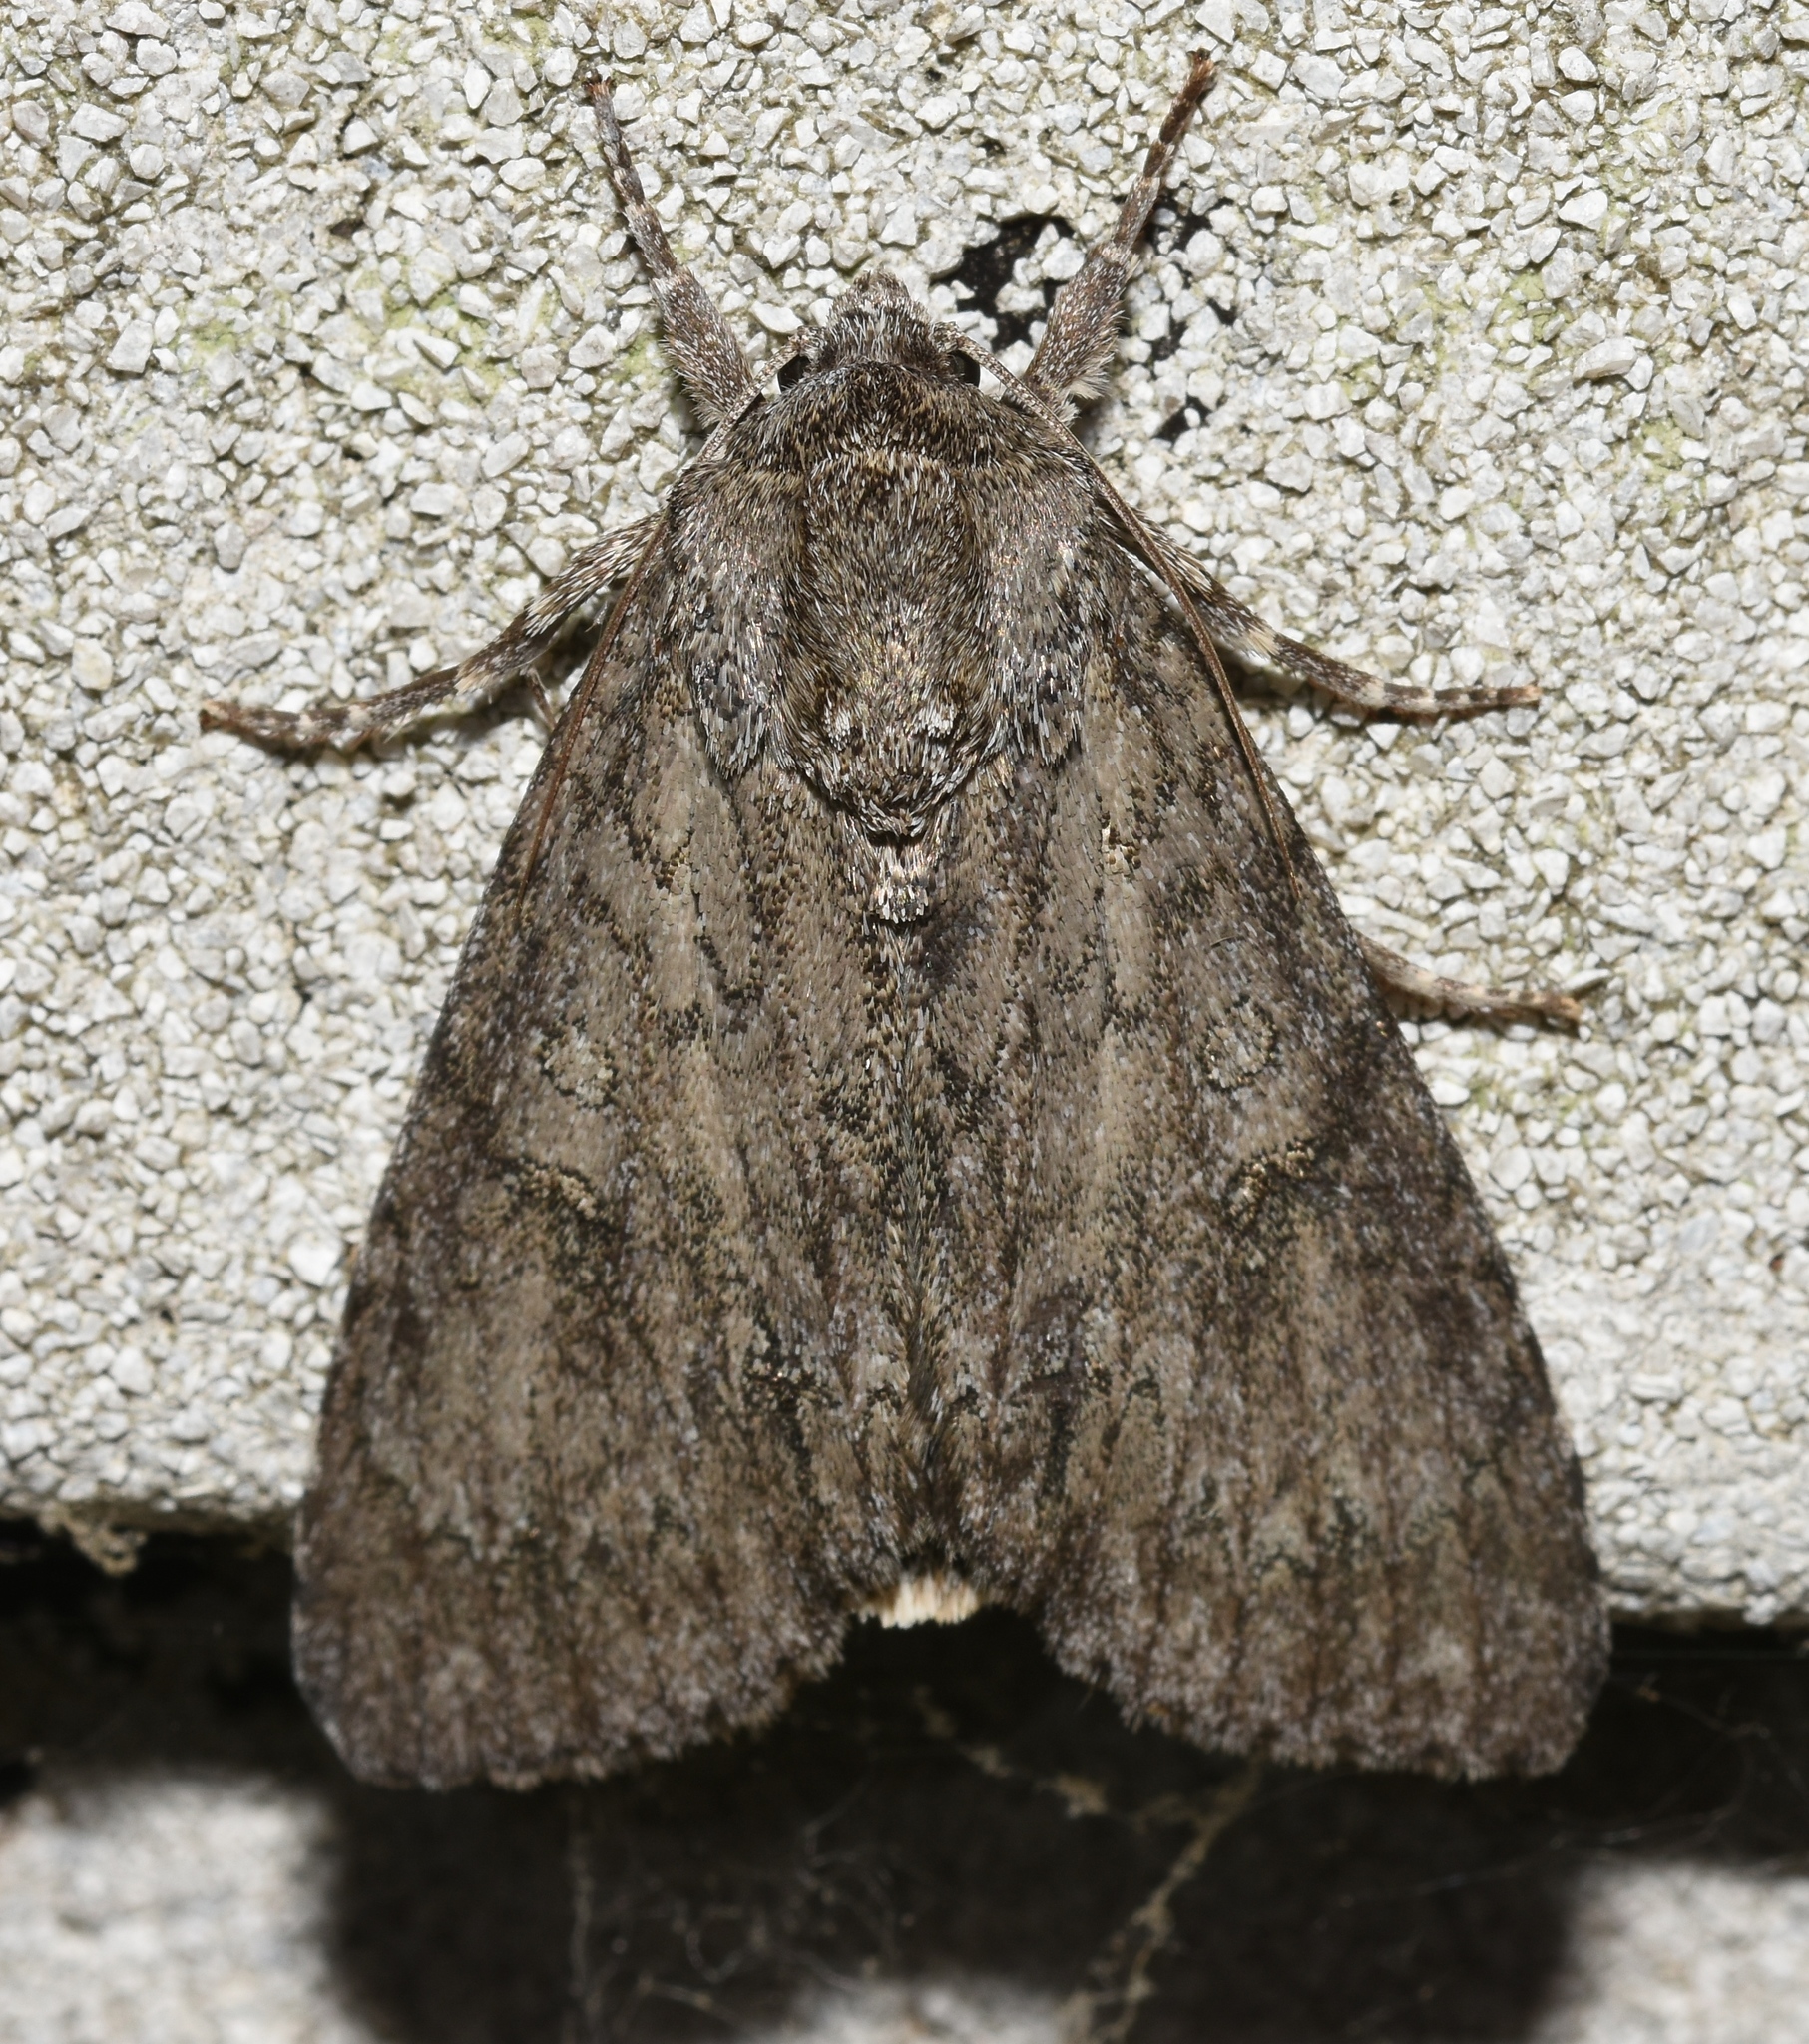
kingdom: Animalia
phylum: Arthropoda
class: Insecta
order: Lepidoptera
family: Noctuidae
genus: Acronicta
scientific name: Acronicta americana
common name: American dagger
